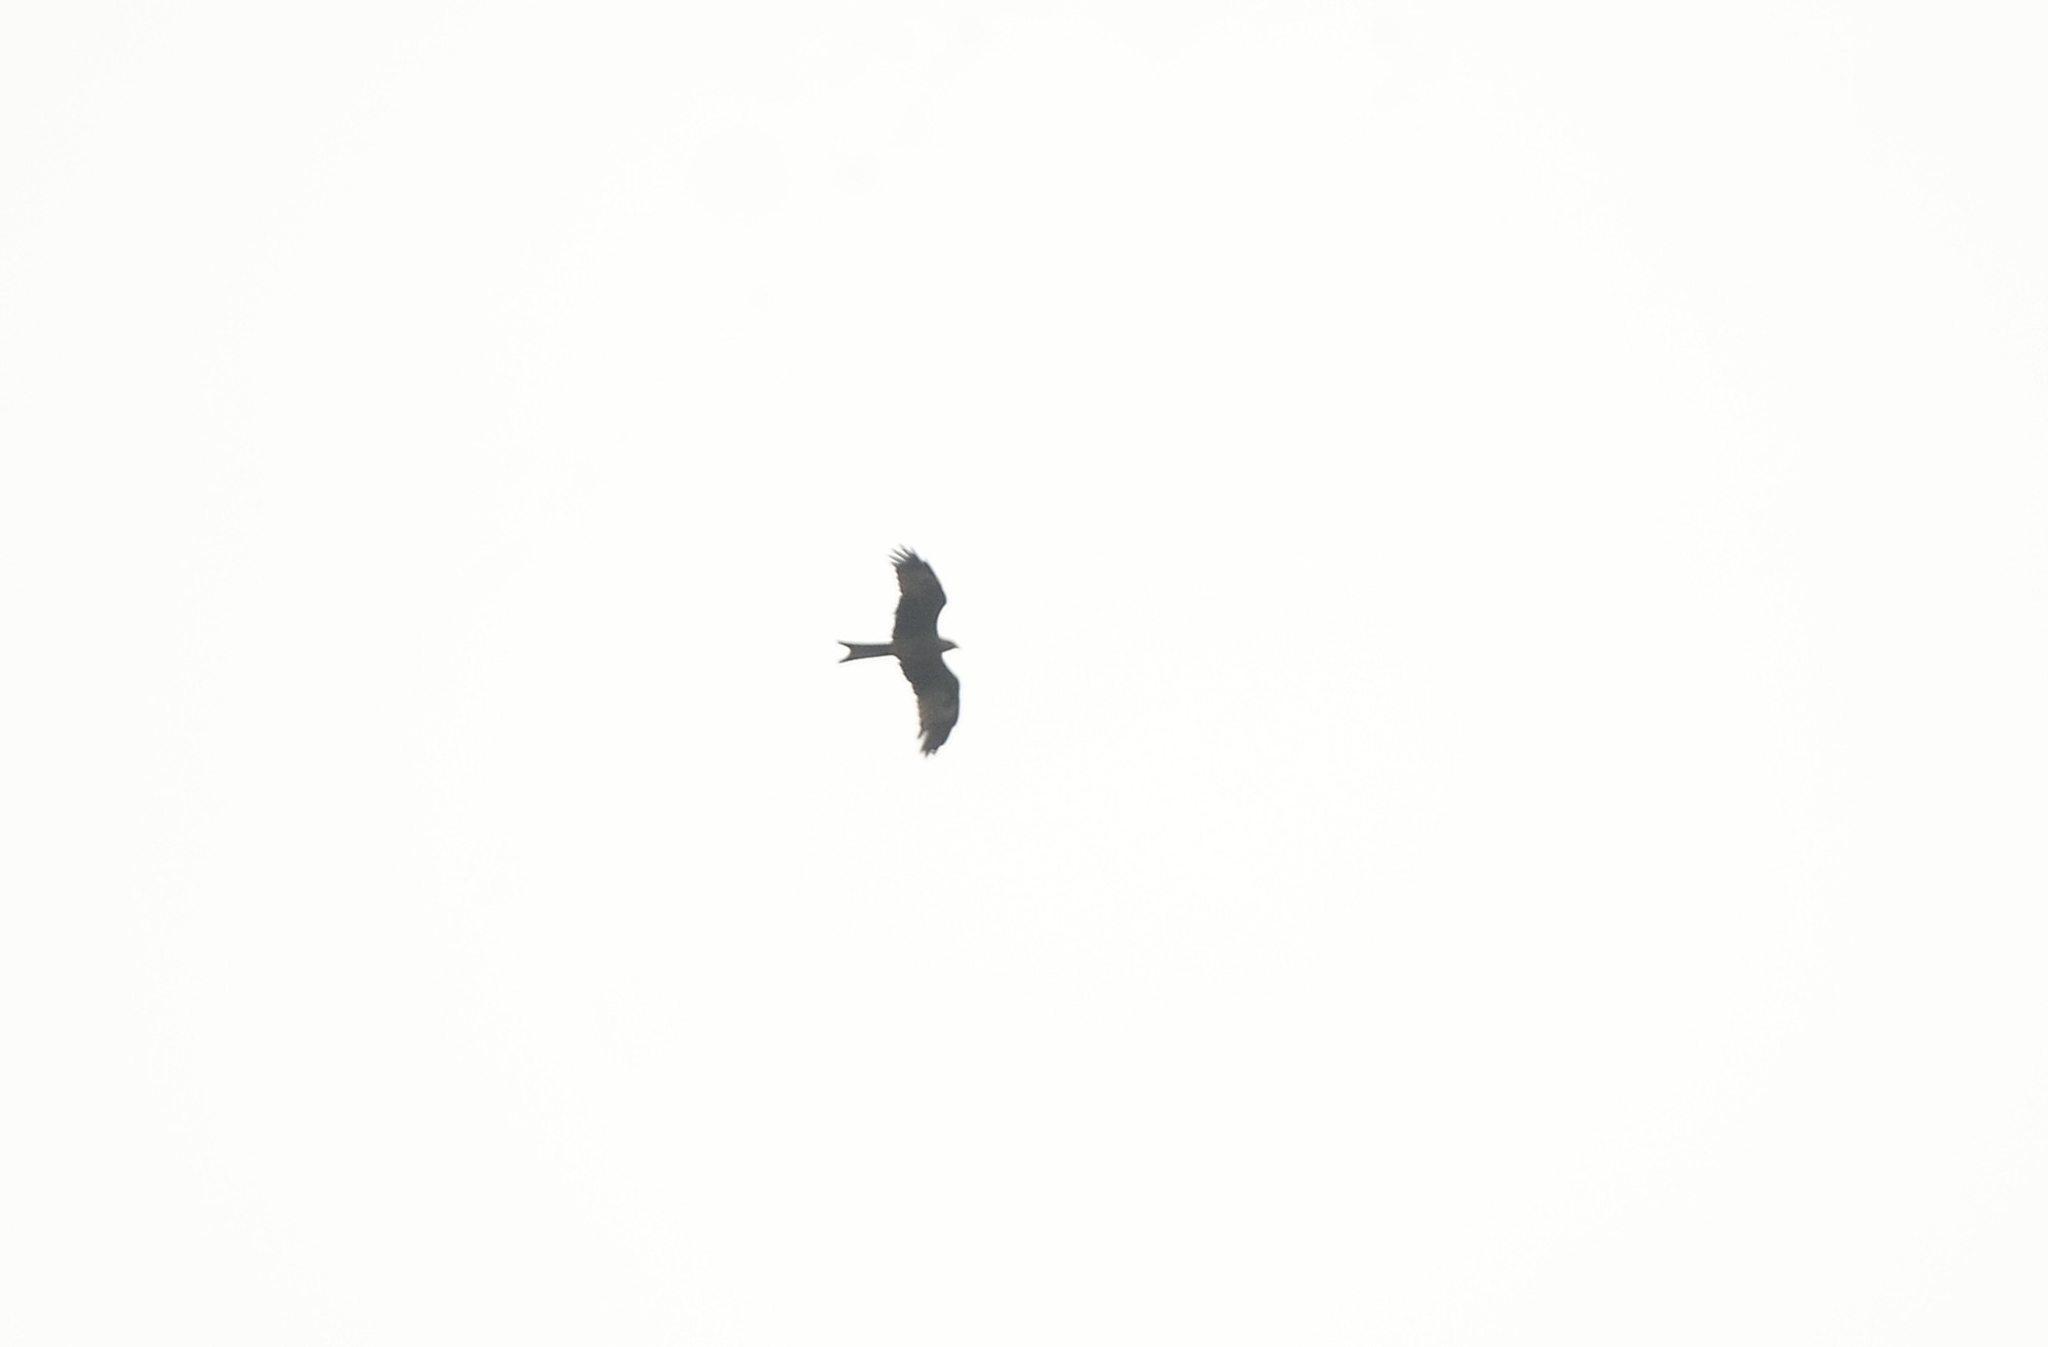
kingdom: Animalia
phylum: Chordata
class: Aves
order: Accipitriformes
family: Accipitridae
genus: Milvus
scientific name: Milvus migrans
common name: Black kite
